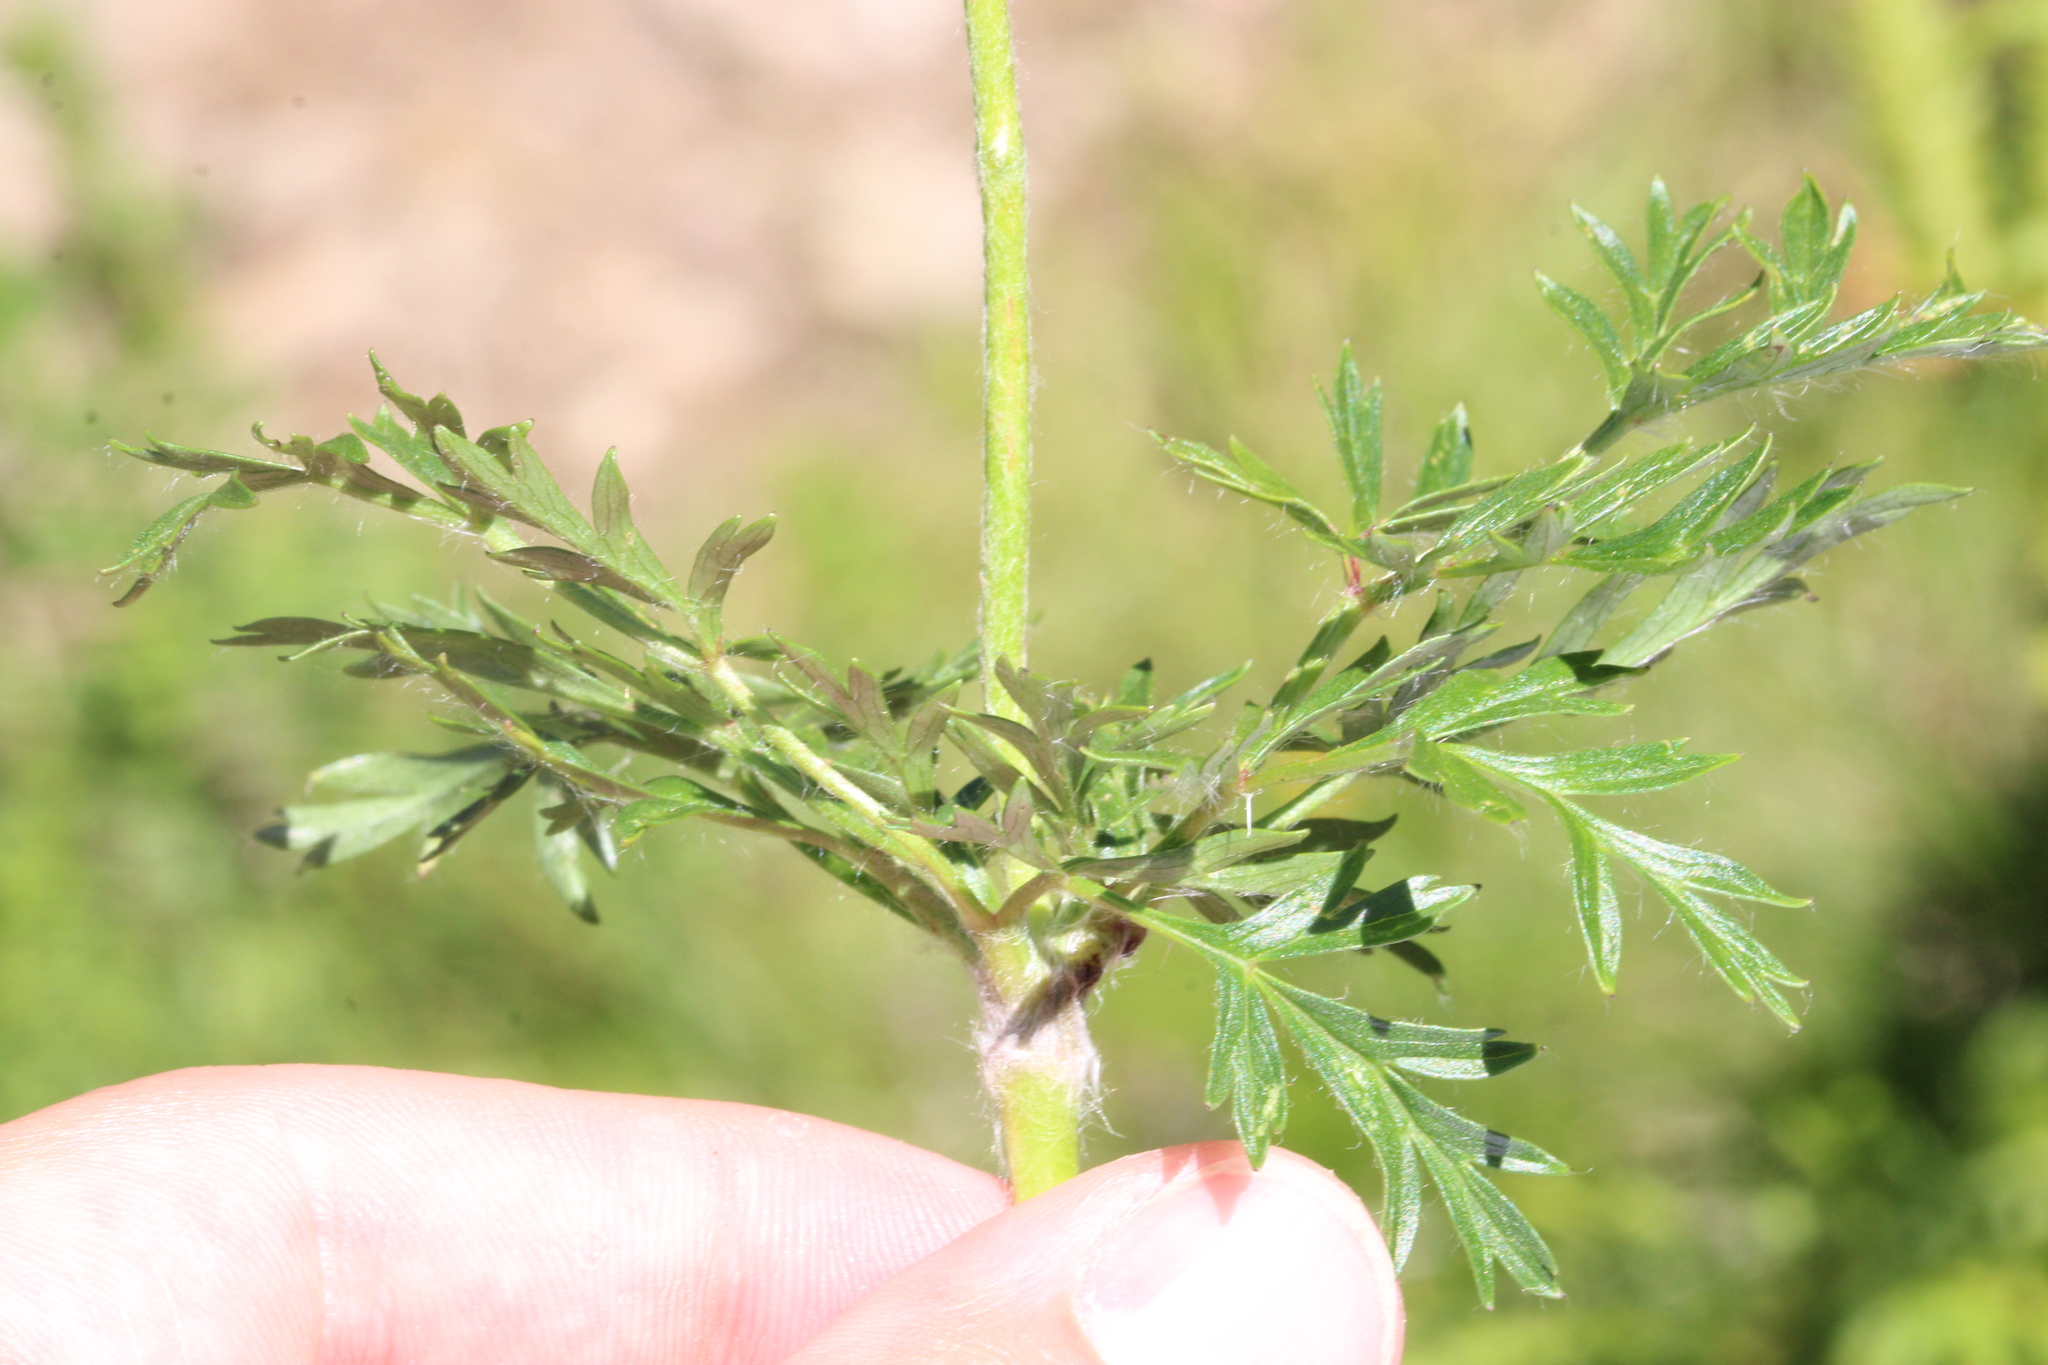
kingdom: Plantae
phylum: Tracheophyta
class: Magnoliopsida
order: Ranunculales
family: Ranunculaceae
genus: Pulsatilla
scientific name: Pulsatilla alpina
